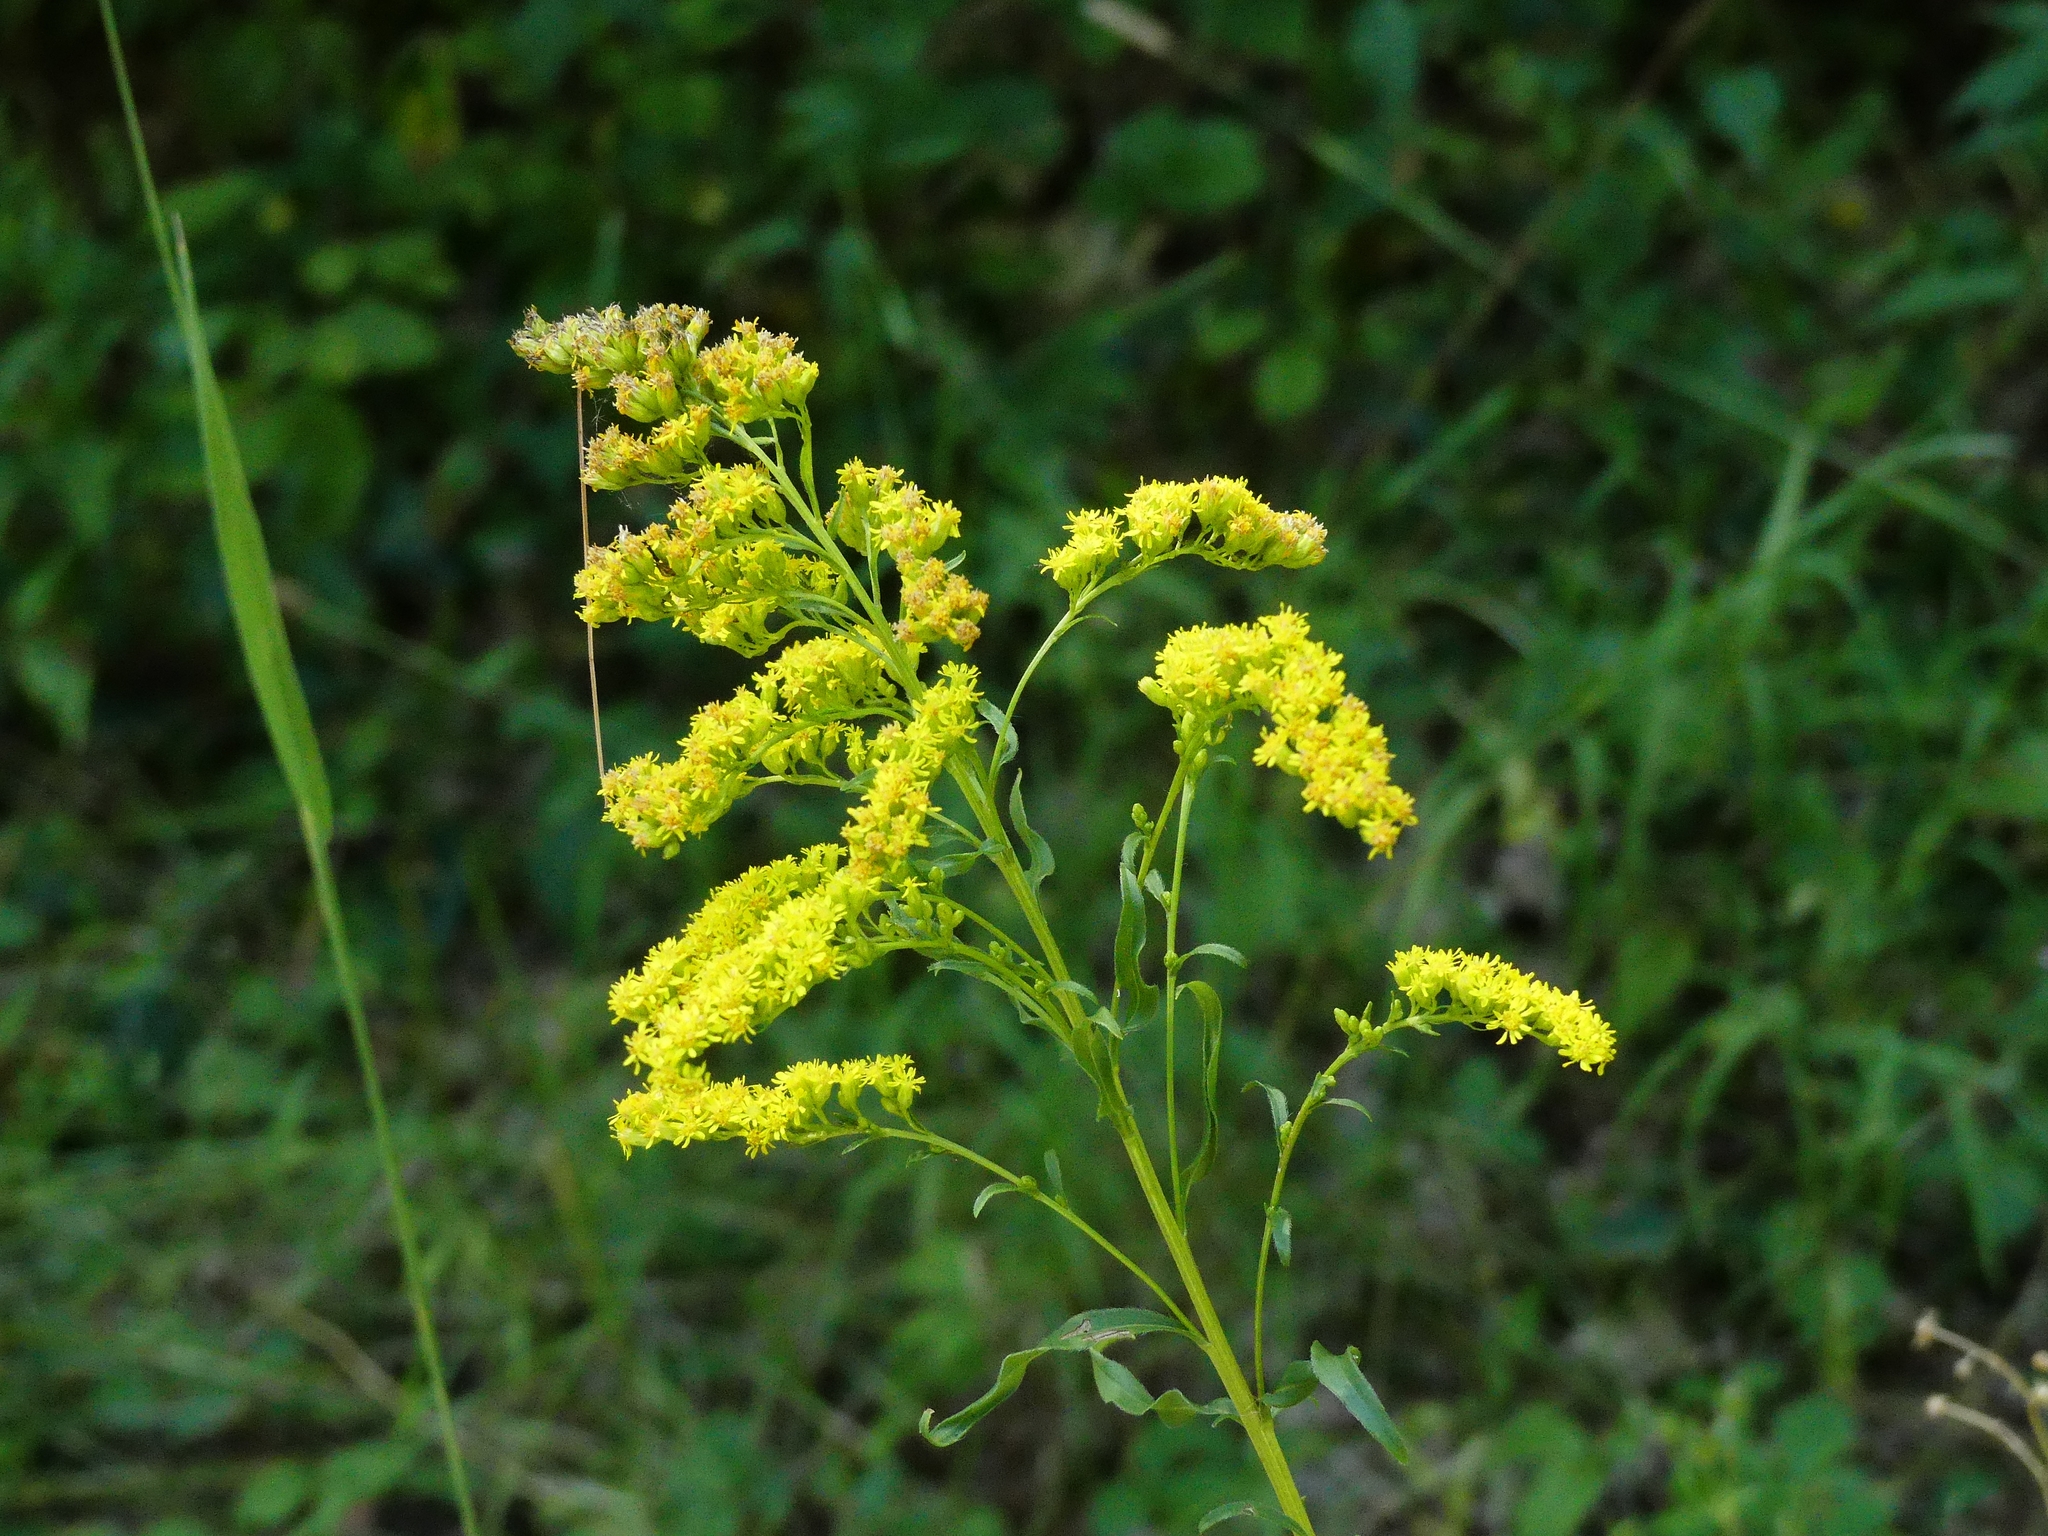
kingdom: Plantae
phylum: Tracheophyta
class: Magnoliopsida
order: Asterales
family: Asteraceae
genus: Solidago
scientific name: Solidago canadensis
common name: Canada goldenrod
